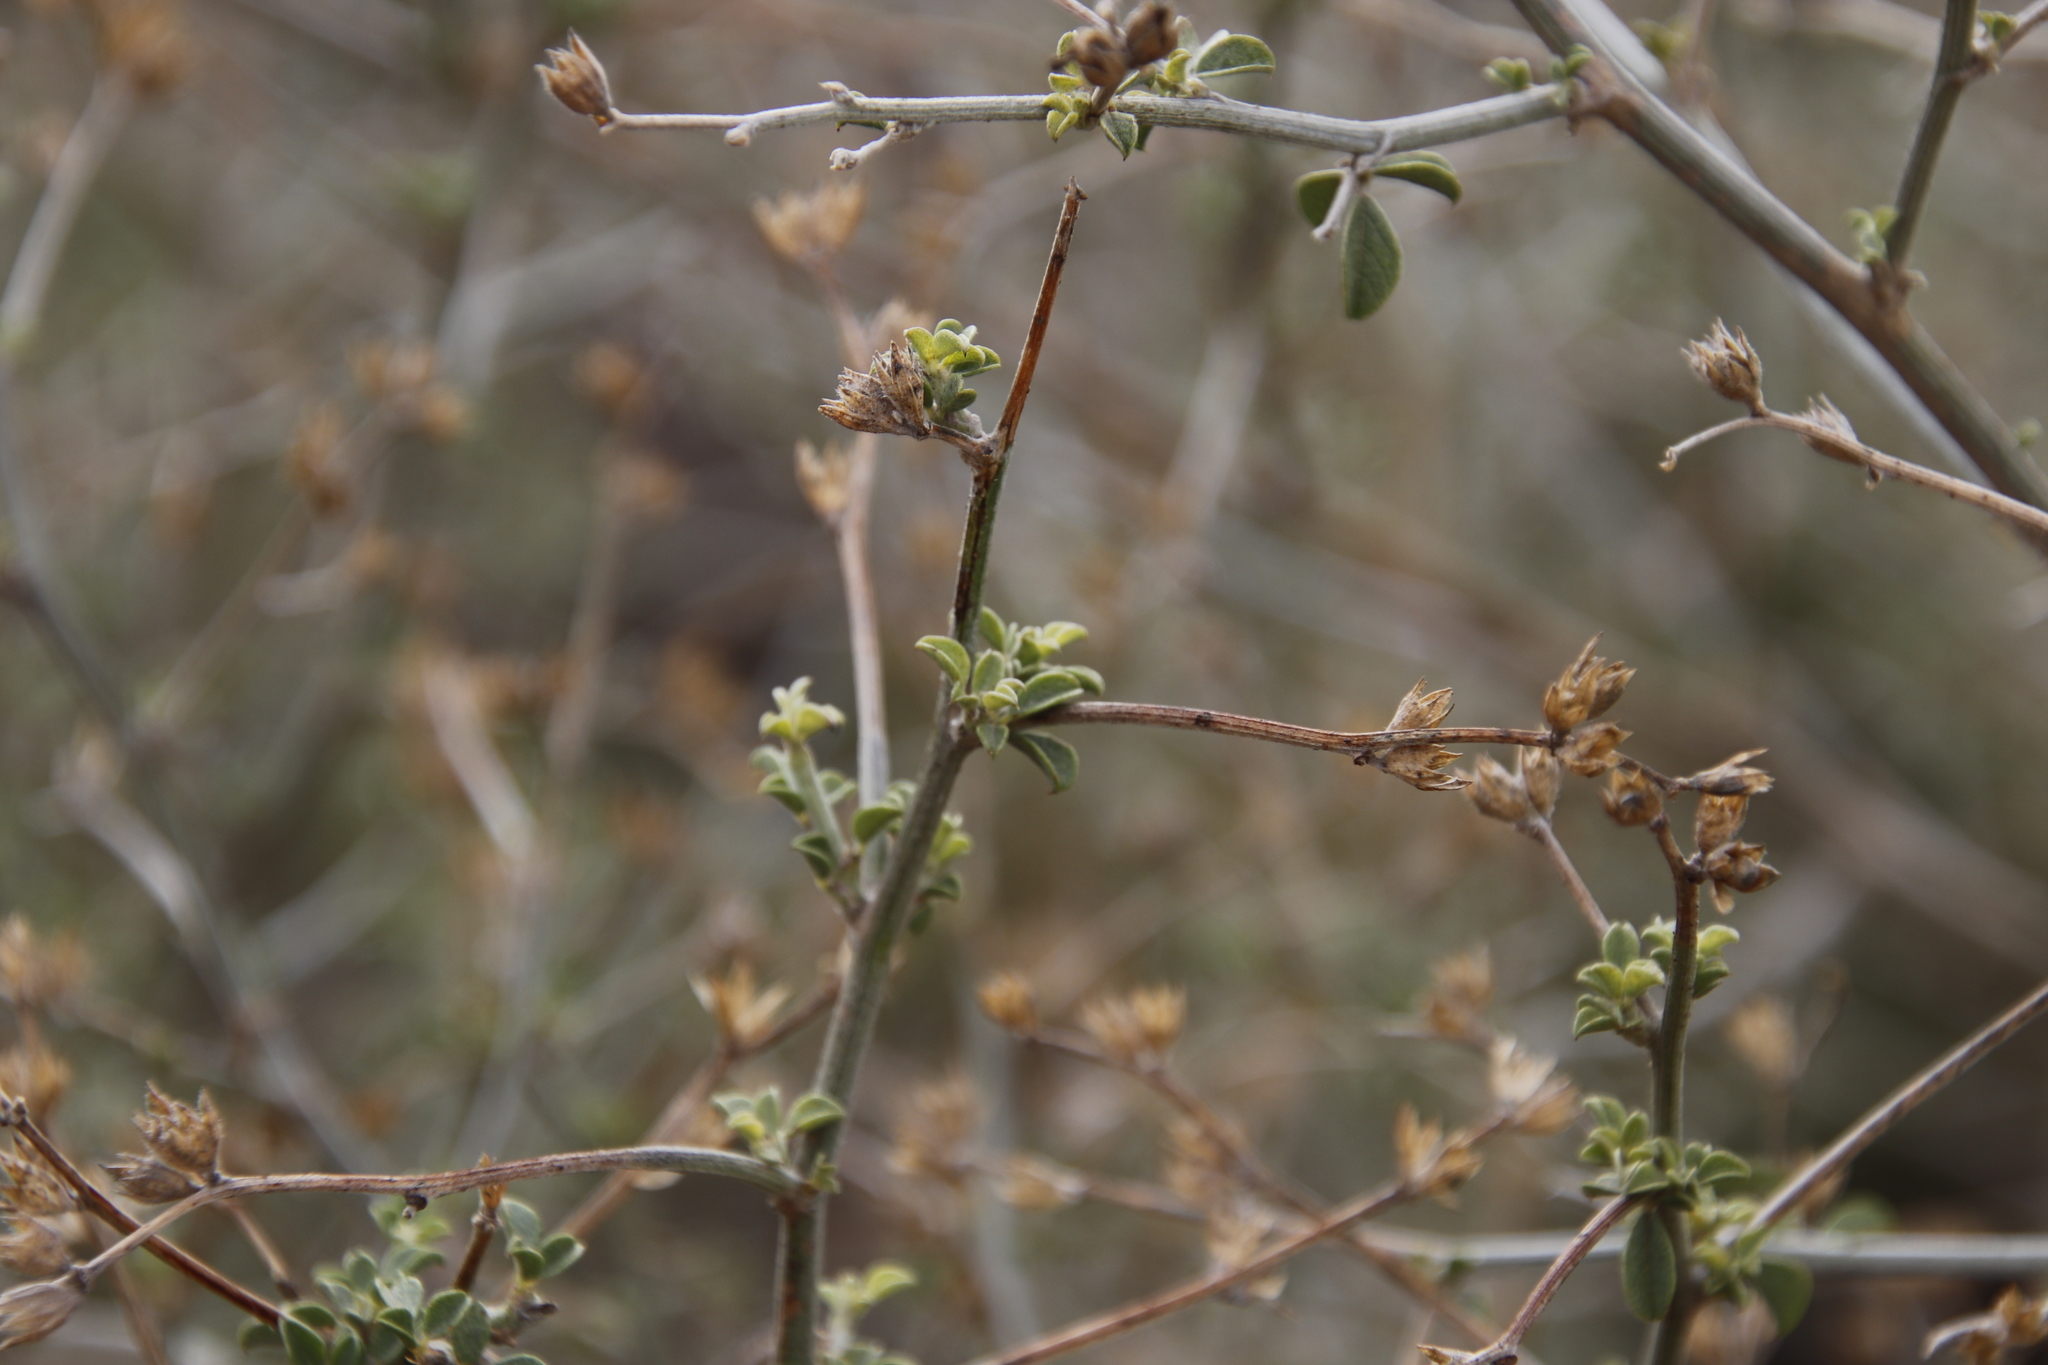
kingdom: Plantae
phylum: Tracheophyta
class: Magnoliopsida
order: Fabales
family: Fabaceae
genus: Psoralea
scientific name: Psoralea hirta
